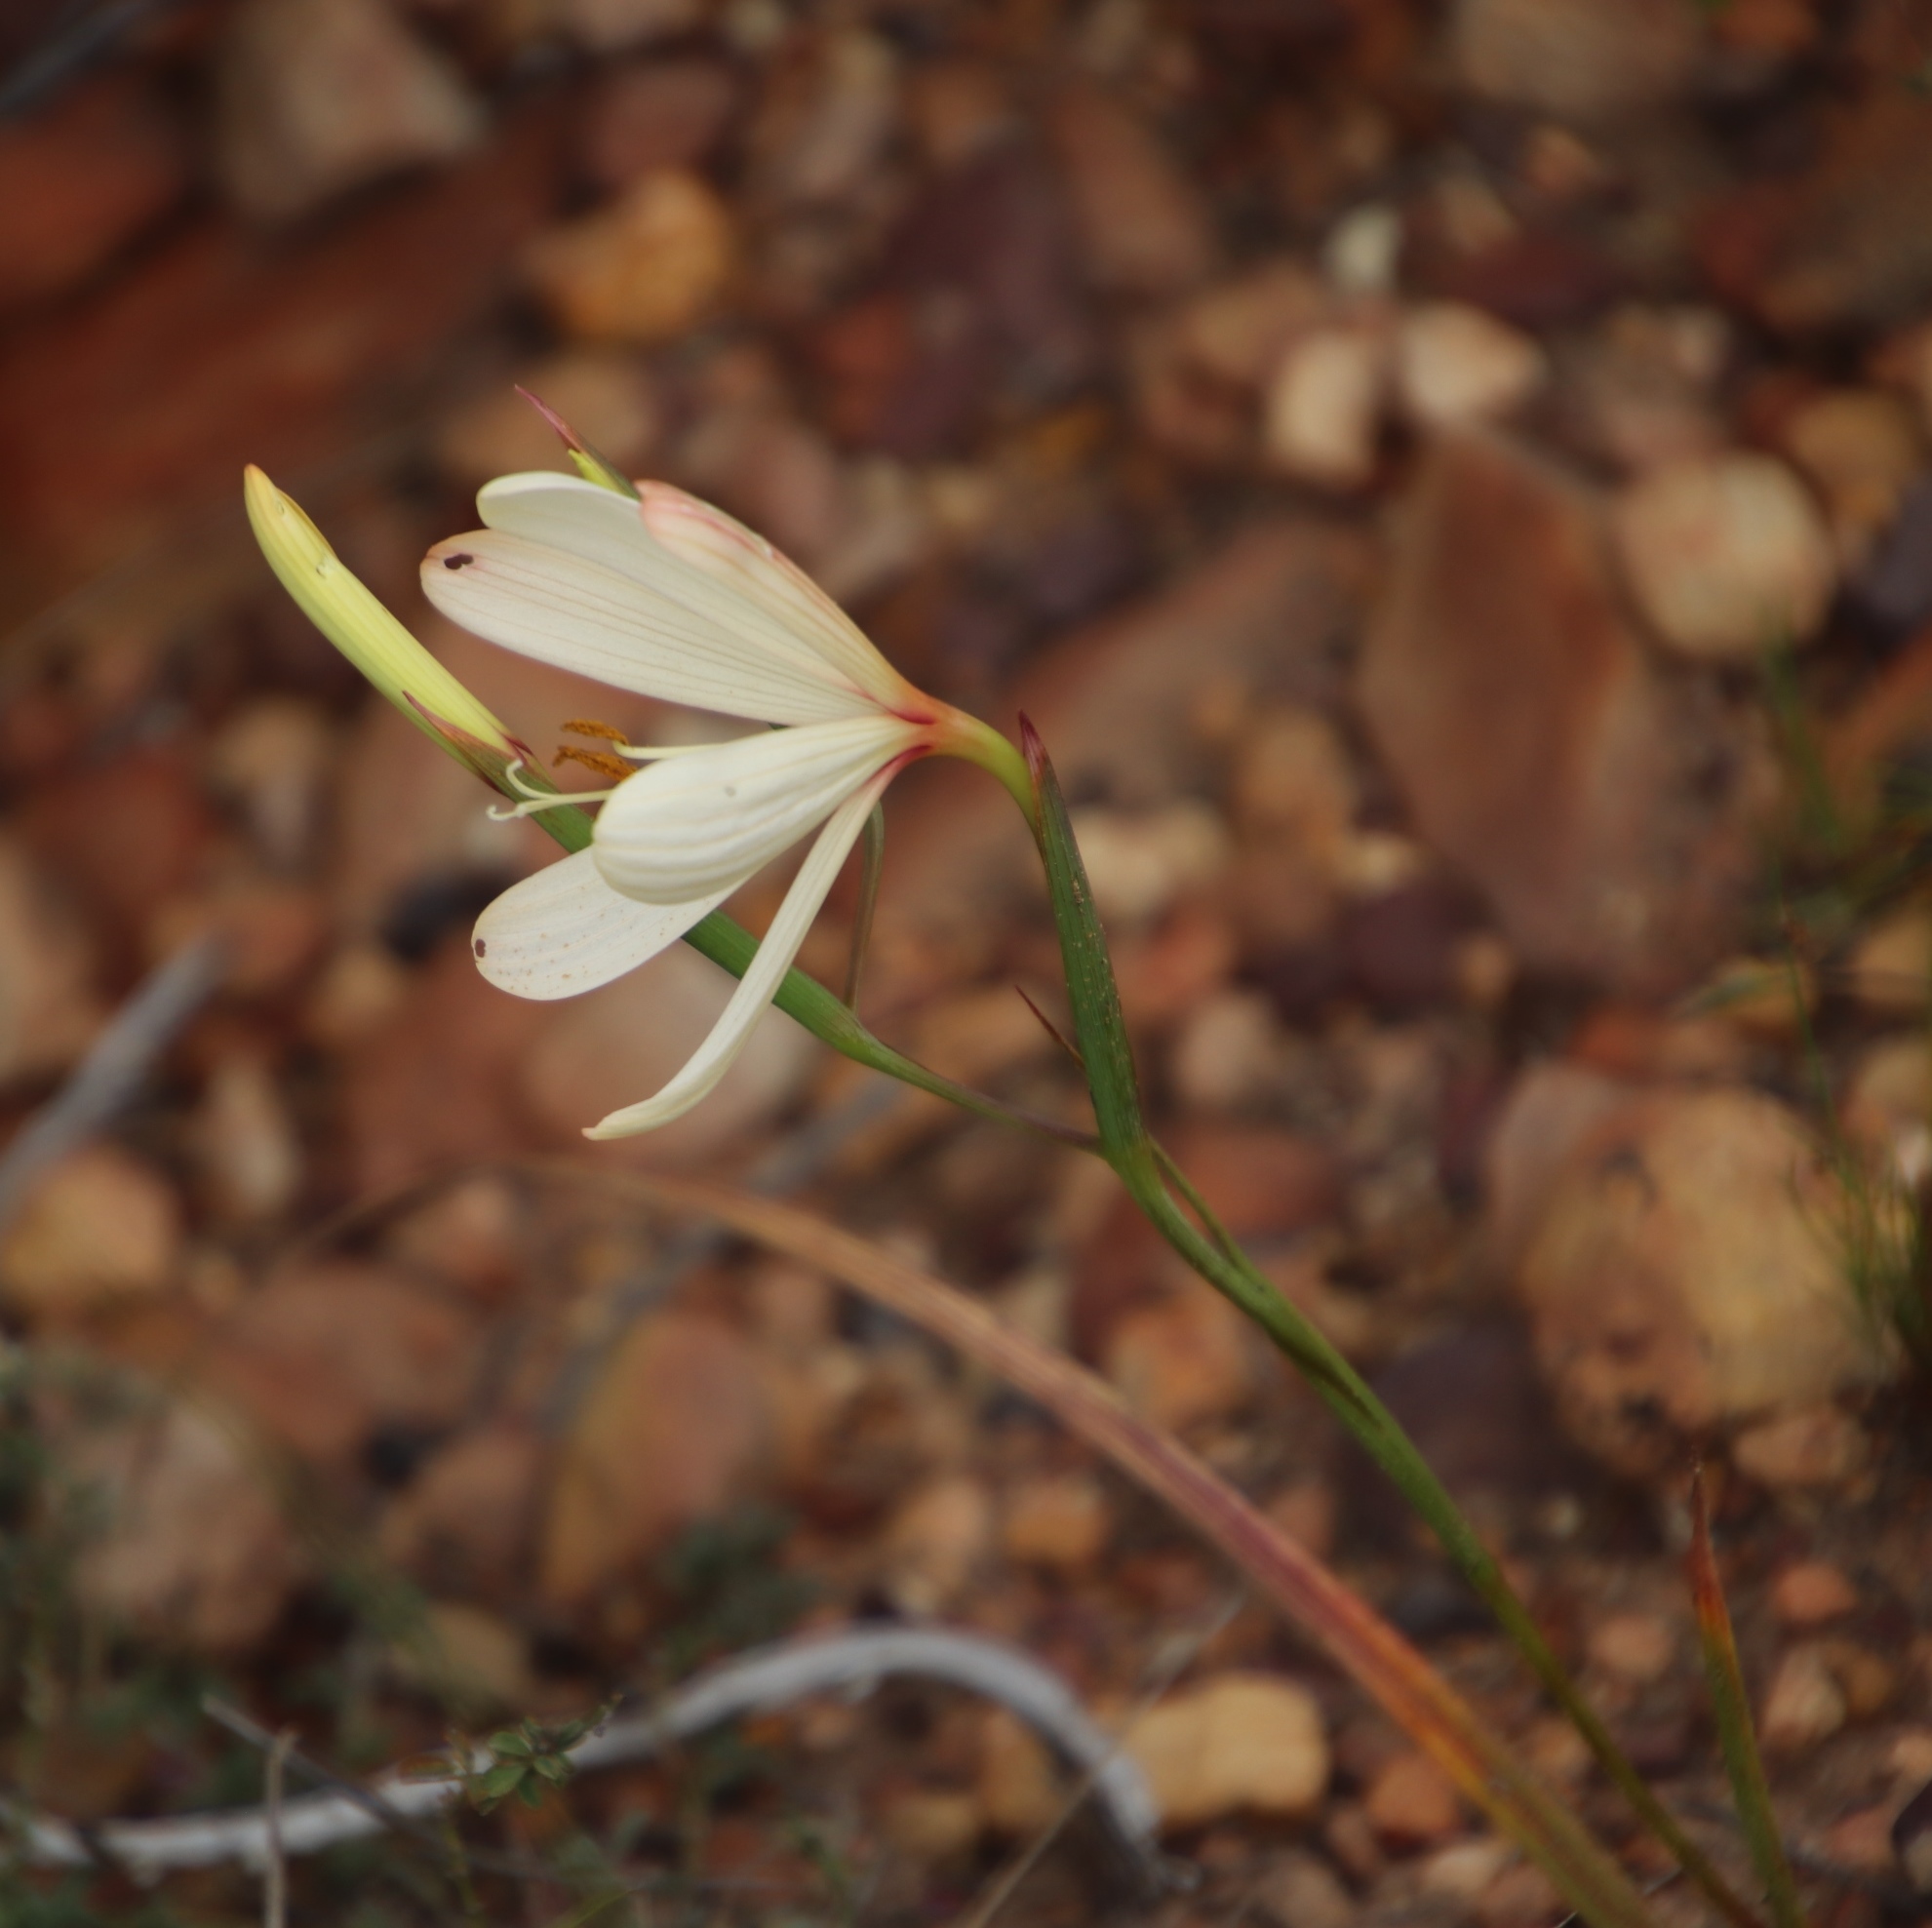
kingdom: Plantae
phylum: Tracheophyta
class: Liliopsida
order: Asparagales
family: Iridaceae
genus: Geissorhiza
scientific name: Geissorhiza schinzii
